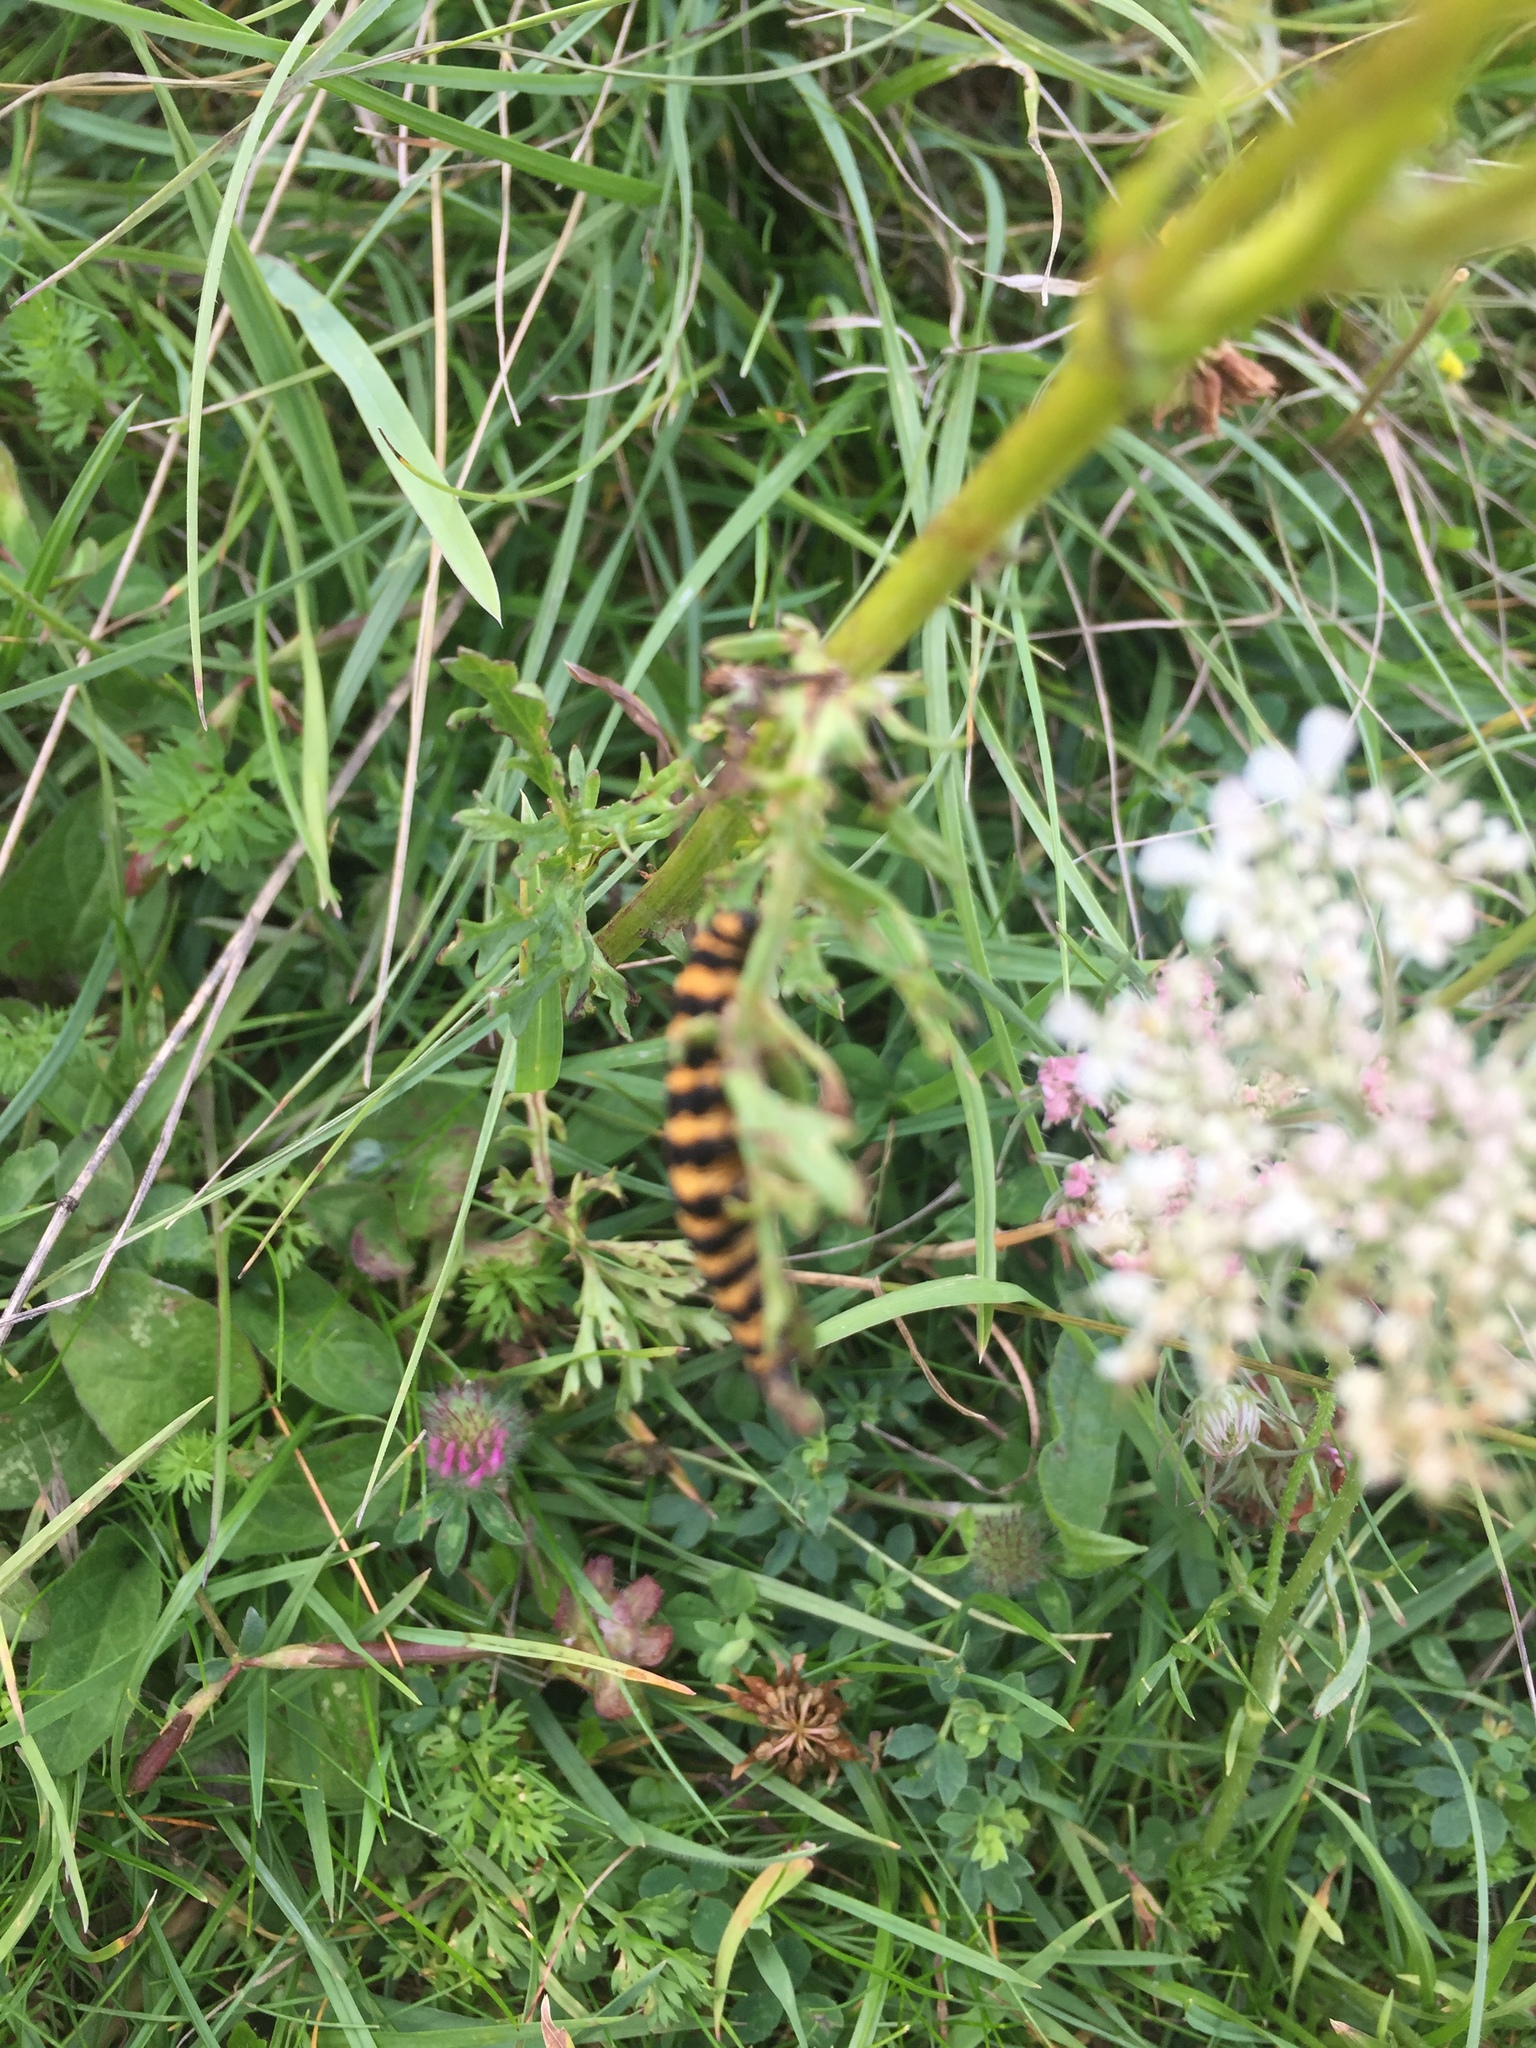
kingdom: Animalia
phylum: Arthropoda
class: Insecta
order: Lepidoptera
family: Erebidae
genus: Tyria
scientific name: Tyria jacobaeae
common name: Cinnabar
